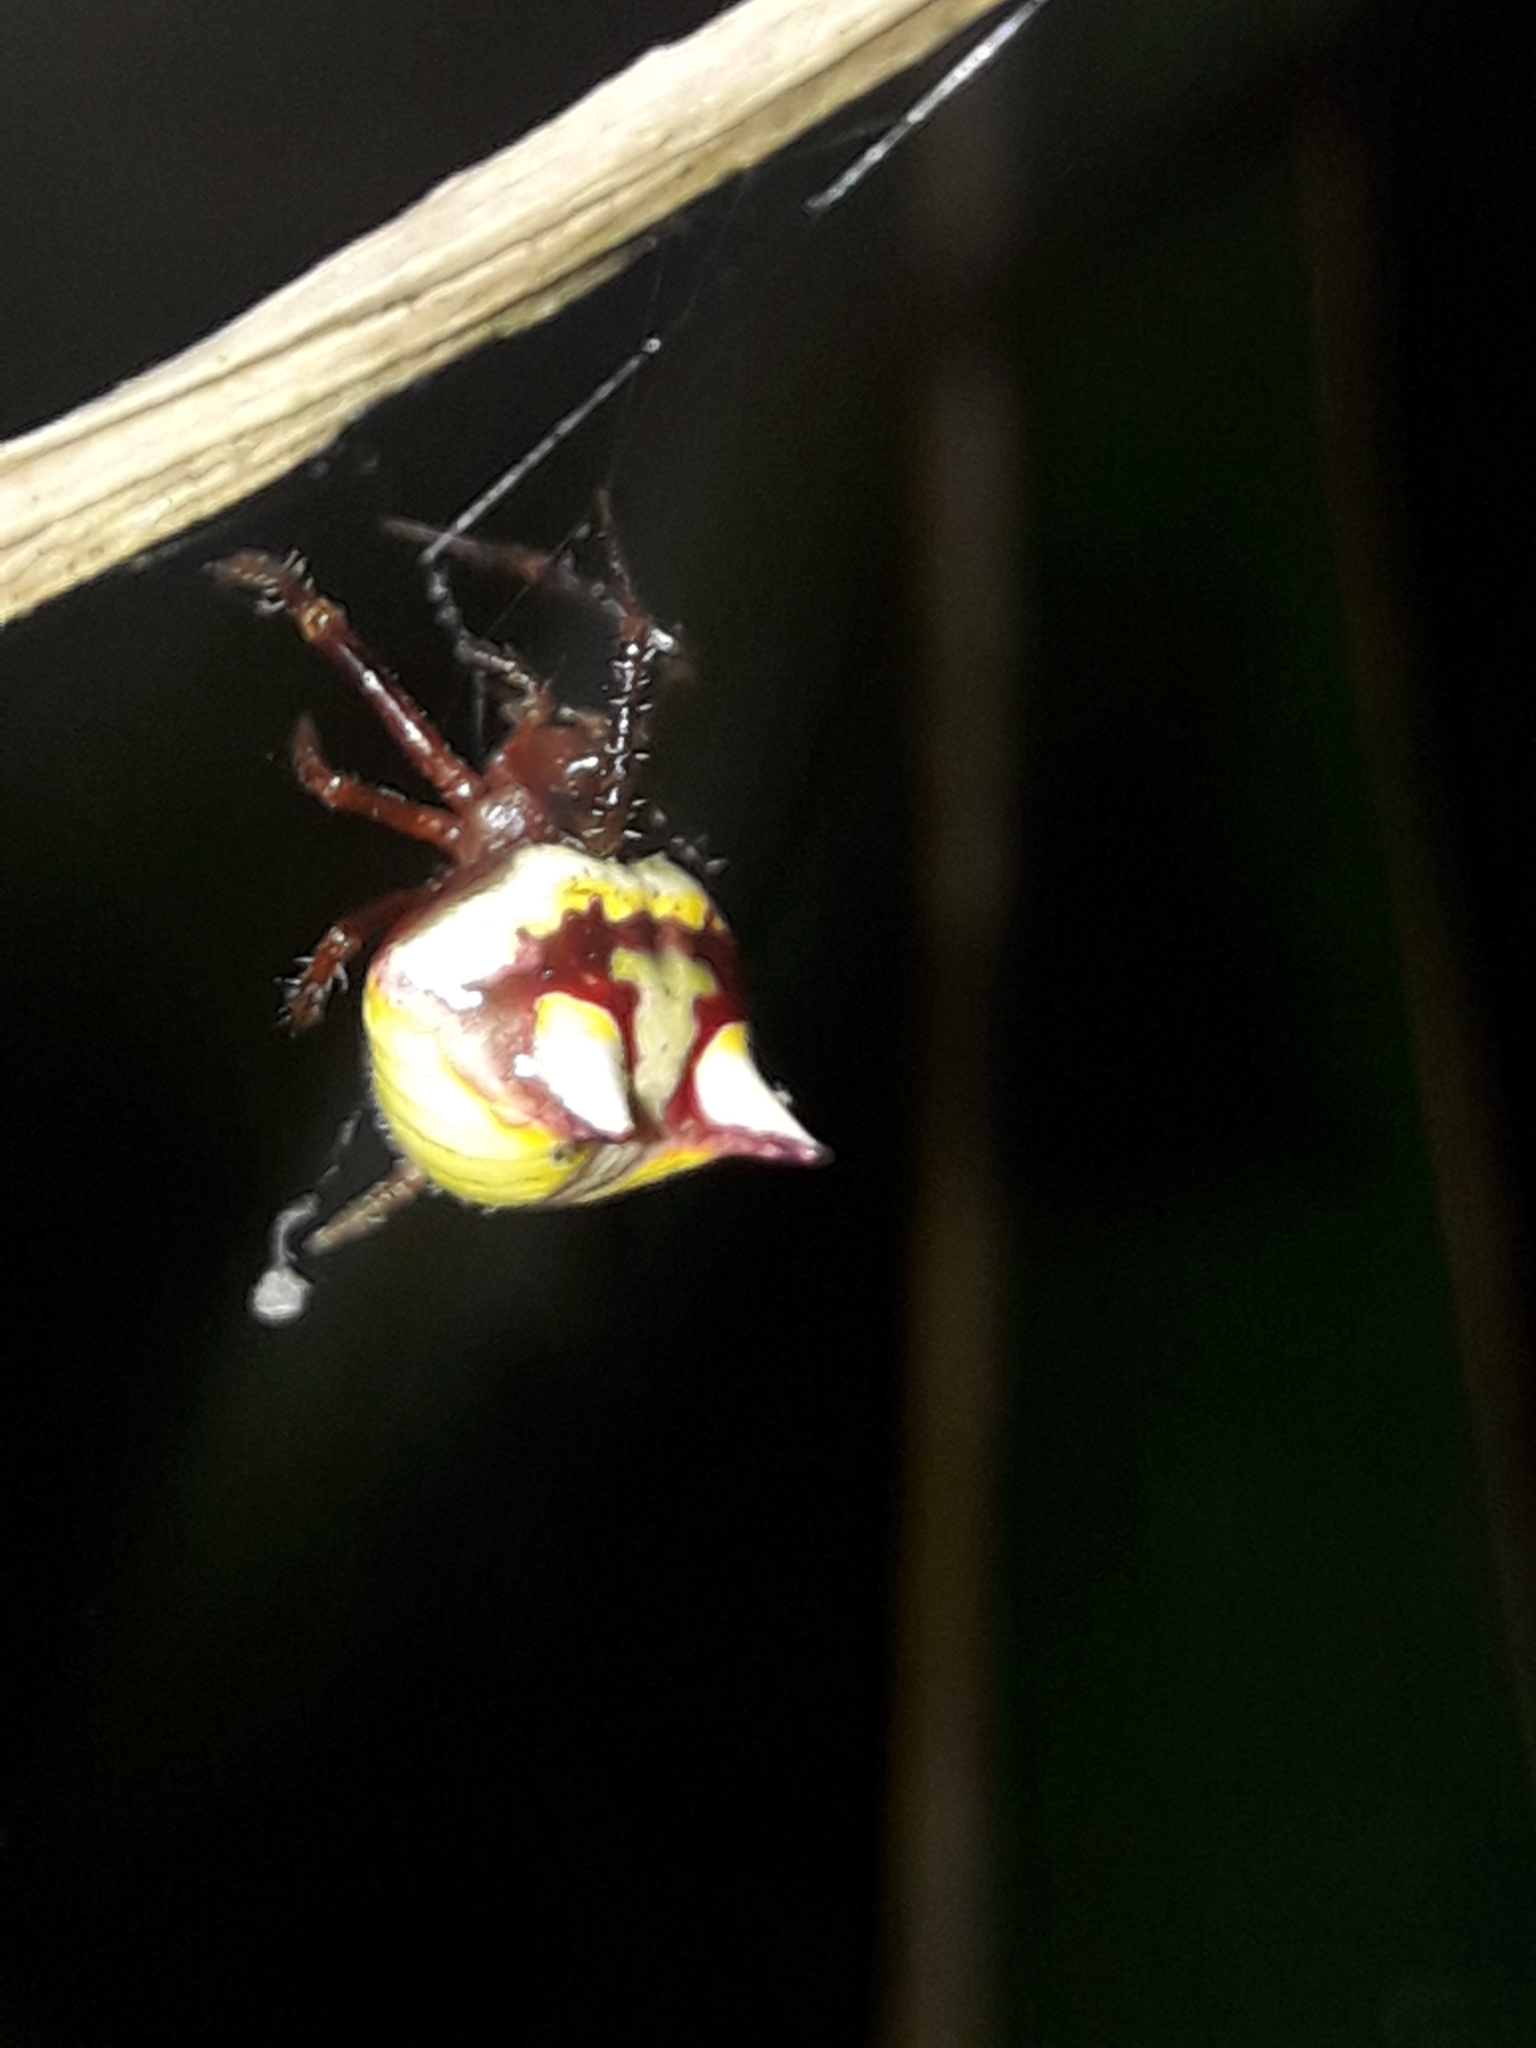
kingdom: Animalia
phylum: Arthropoda
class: Arachnida
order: Araneae
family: Araneidae
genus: Poecilopachys
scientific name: Poecilopachys australasia
